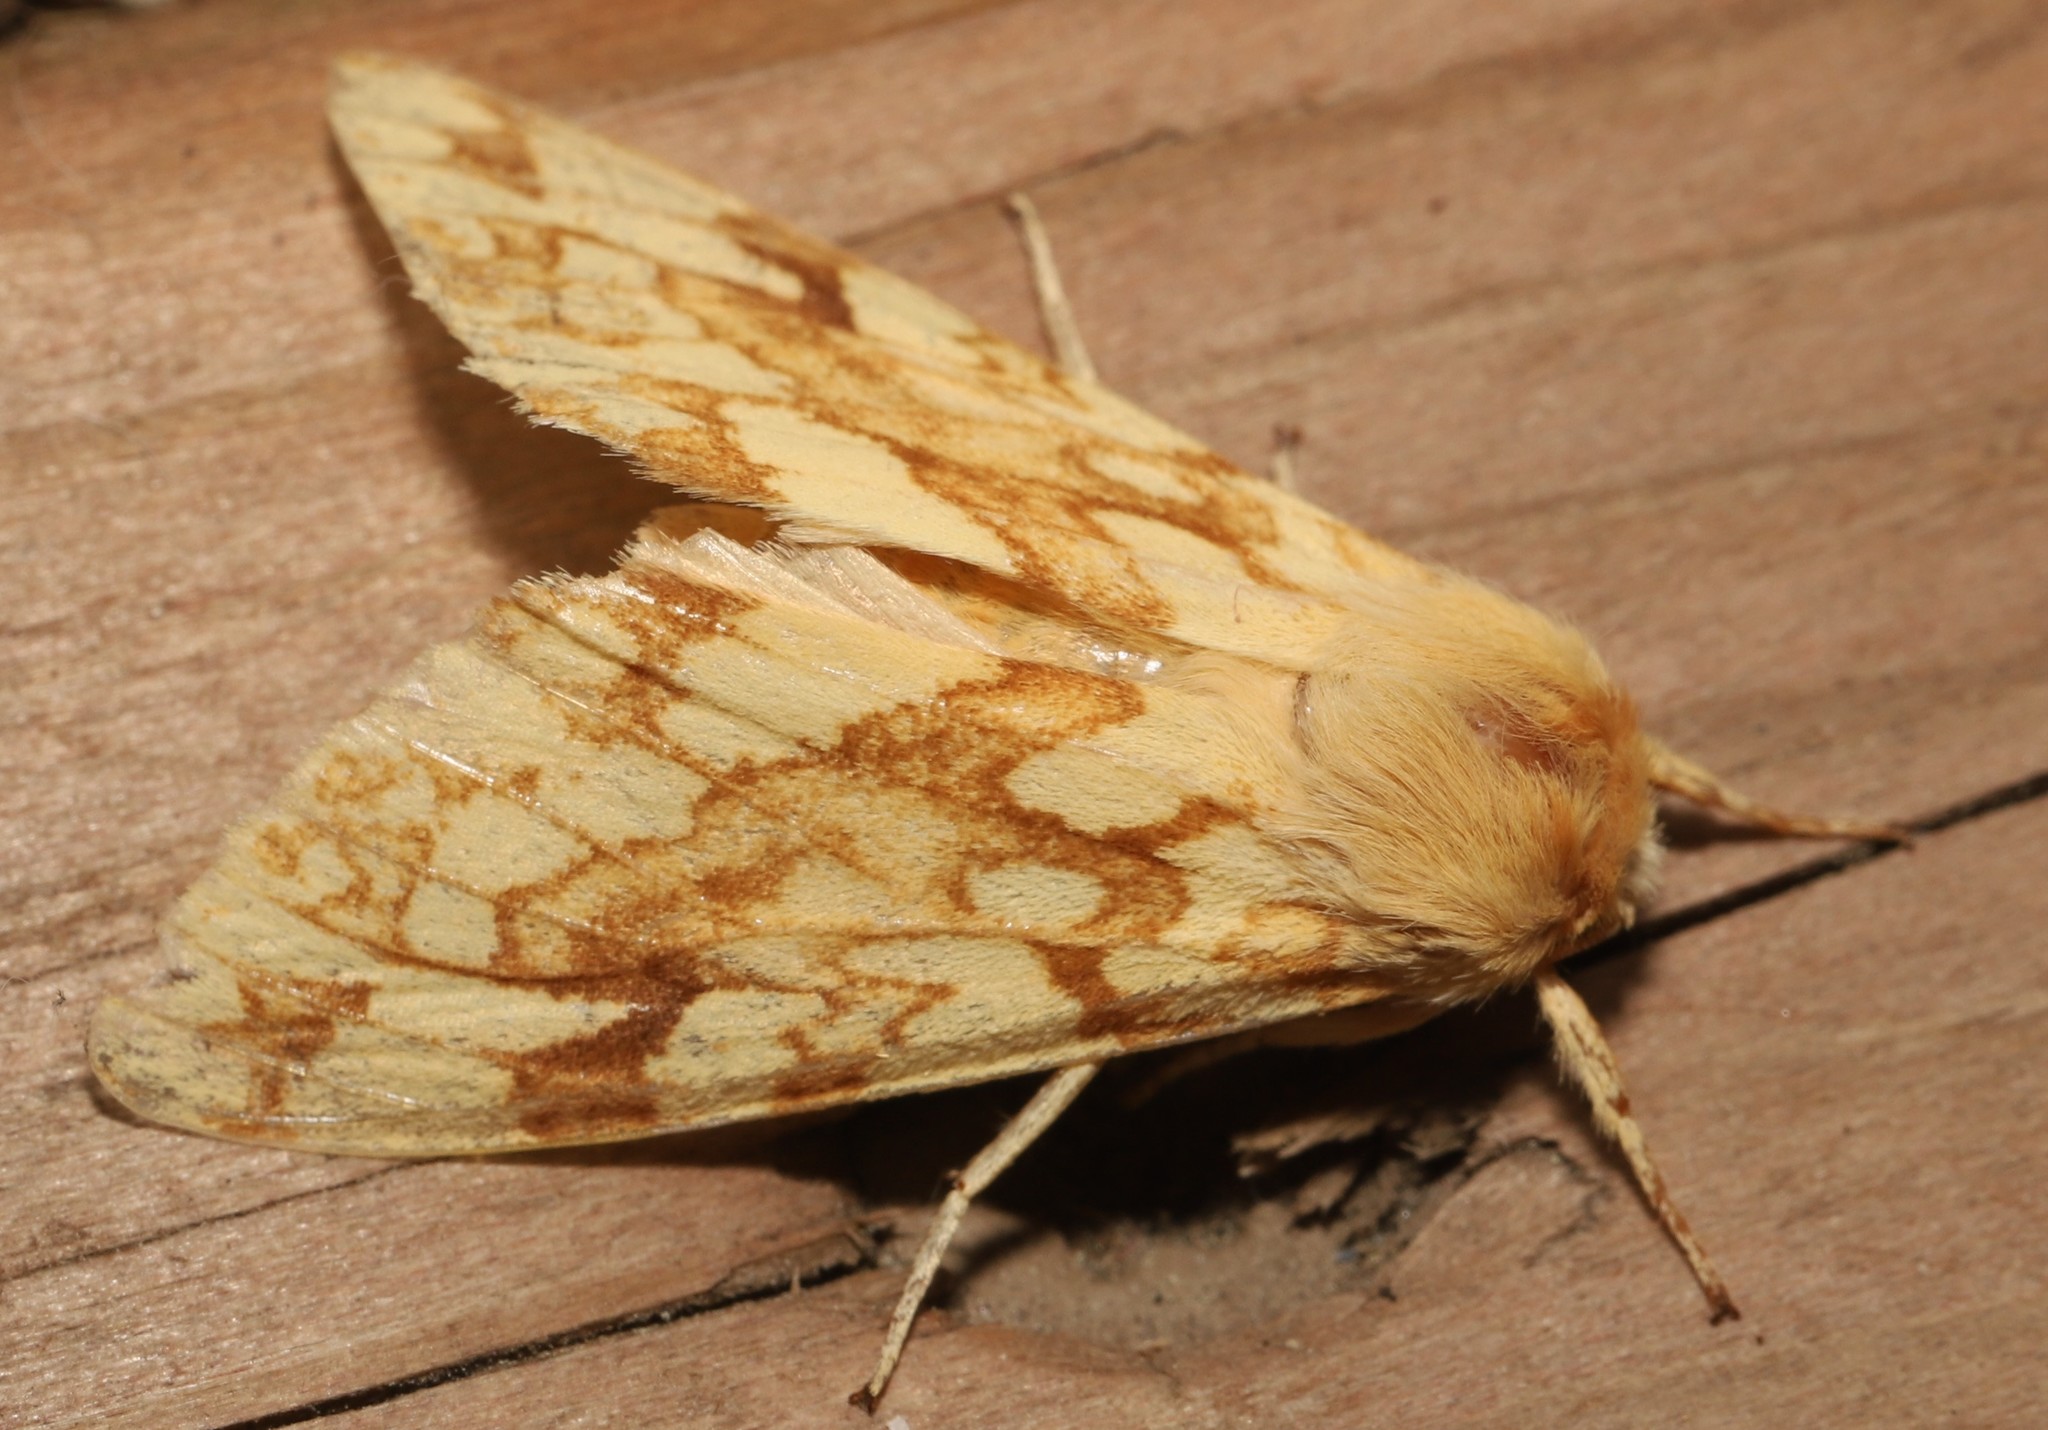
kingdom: Animalia
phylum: Arthropoda
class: Insecta
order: Lepidoptera
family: Erebidae
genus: Lophocampa
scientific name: Lophocampa maculata
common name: Spotted tussock moth
